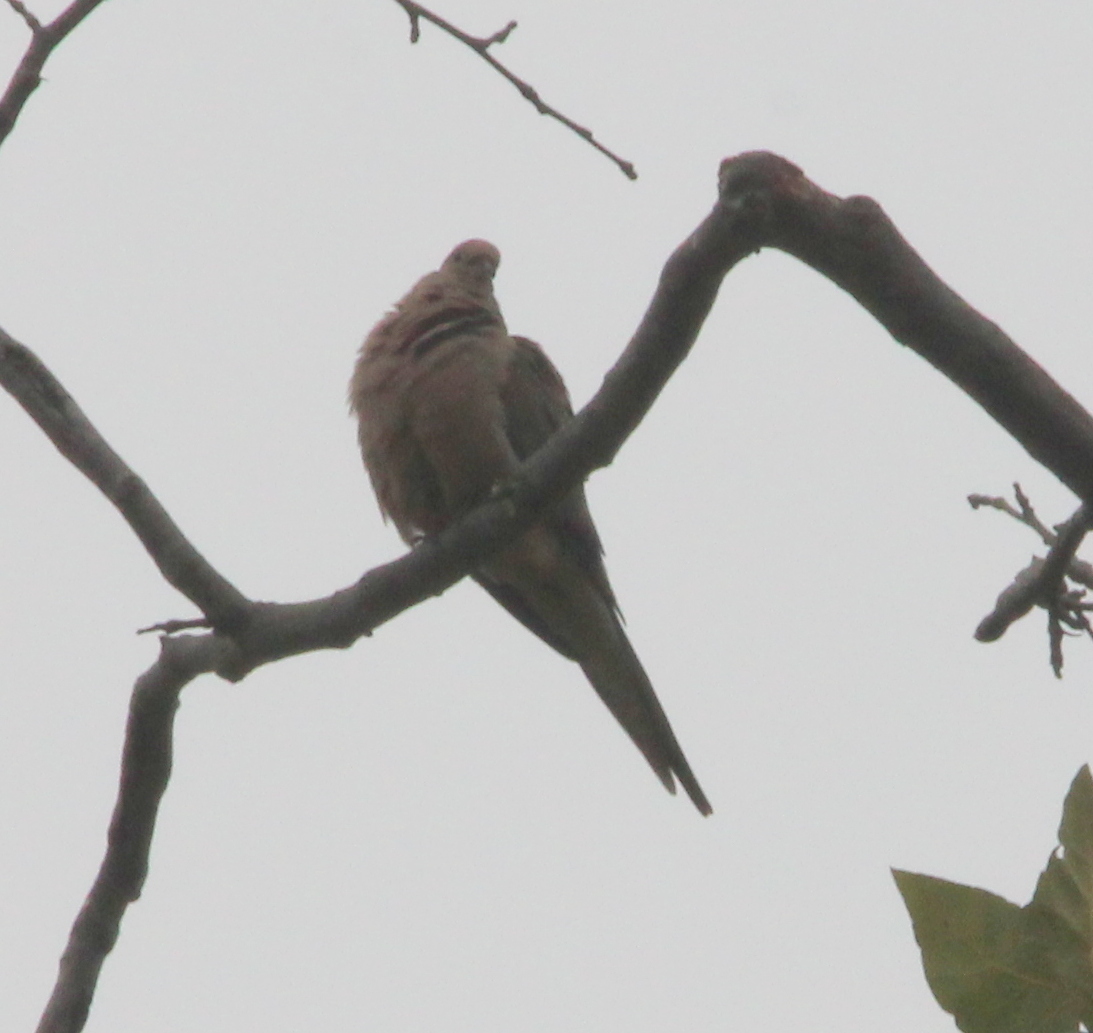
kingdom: Animalia
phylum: Chordata
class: Aves
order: Columbiformes
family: Columbidae
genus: Zenaida
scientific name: Zenaida macroura
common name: Mourning dove
